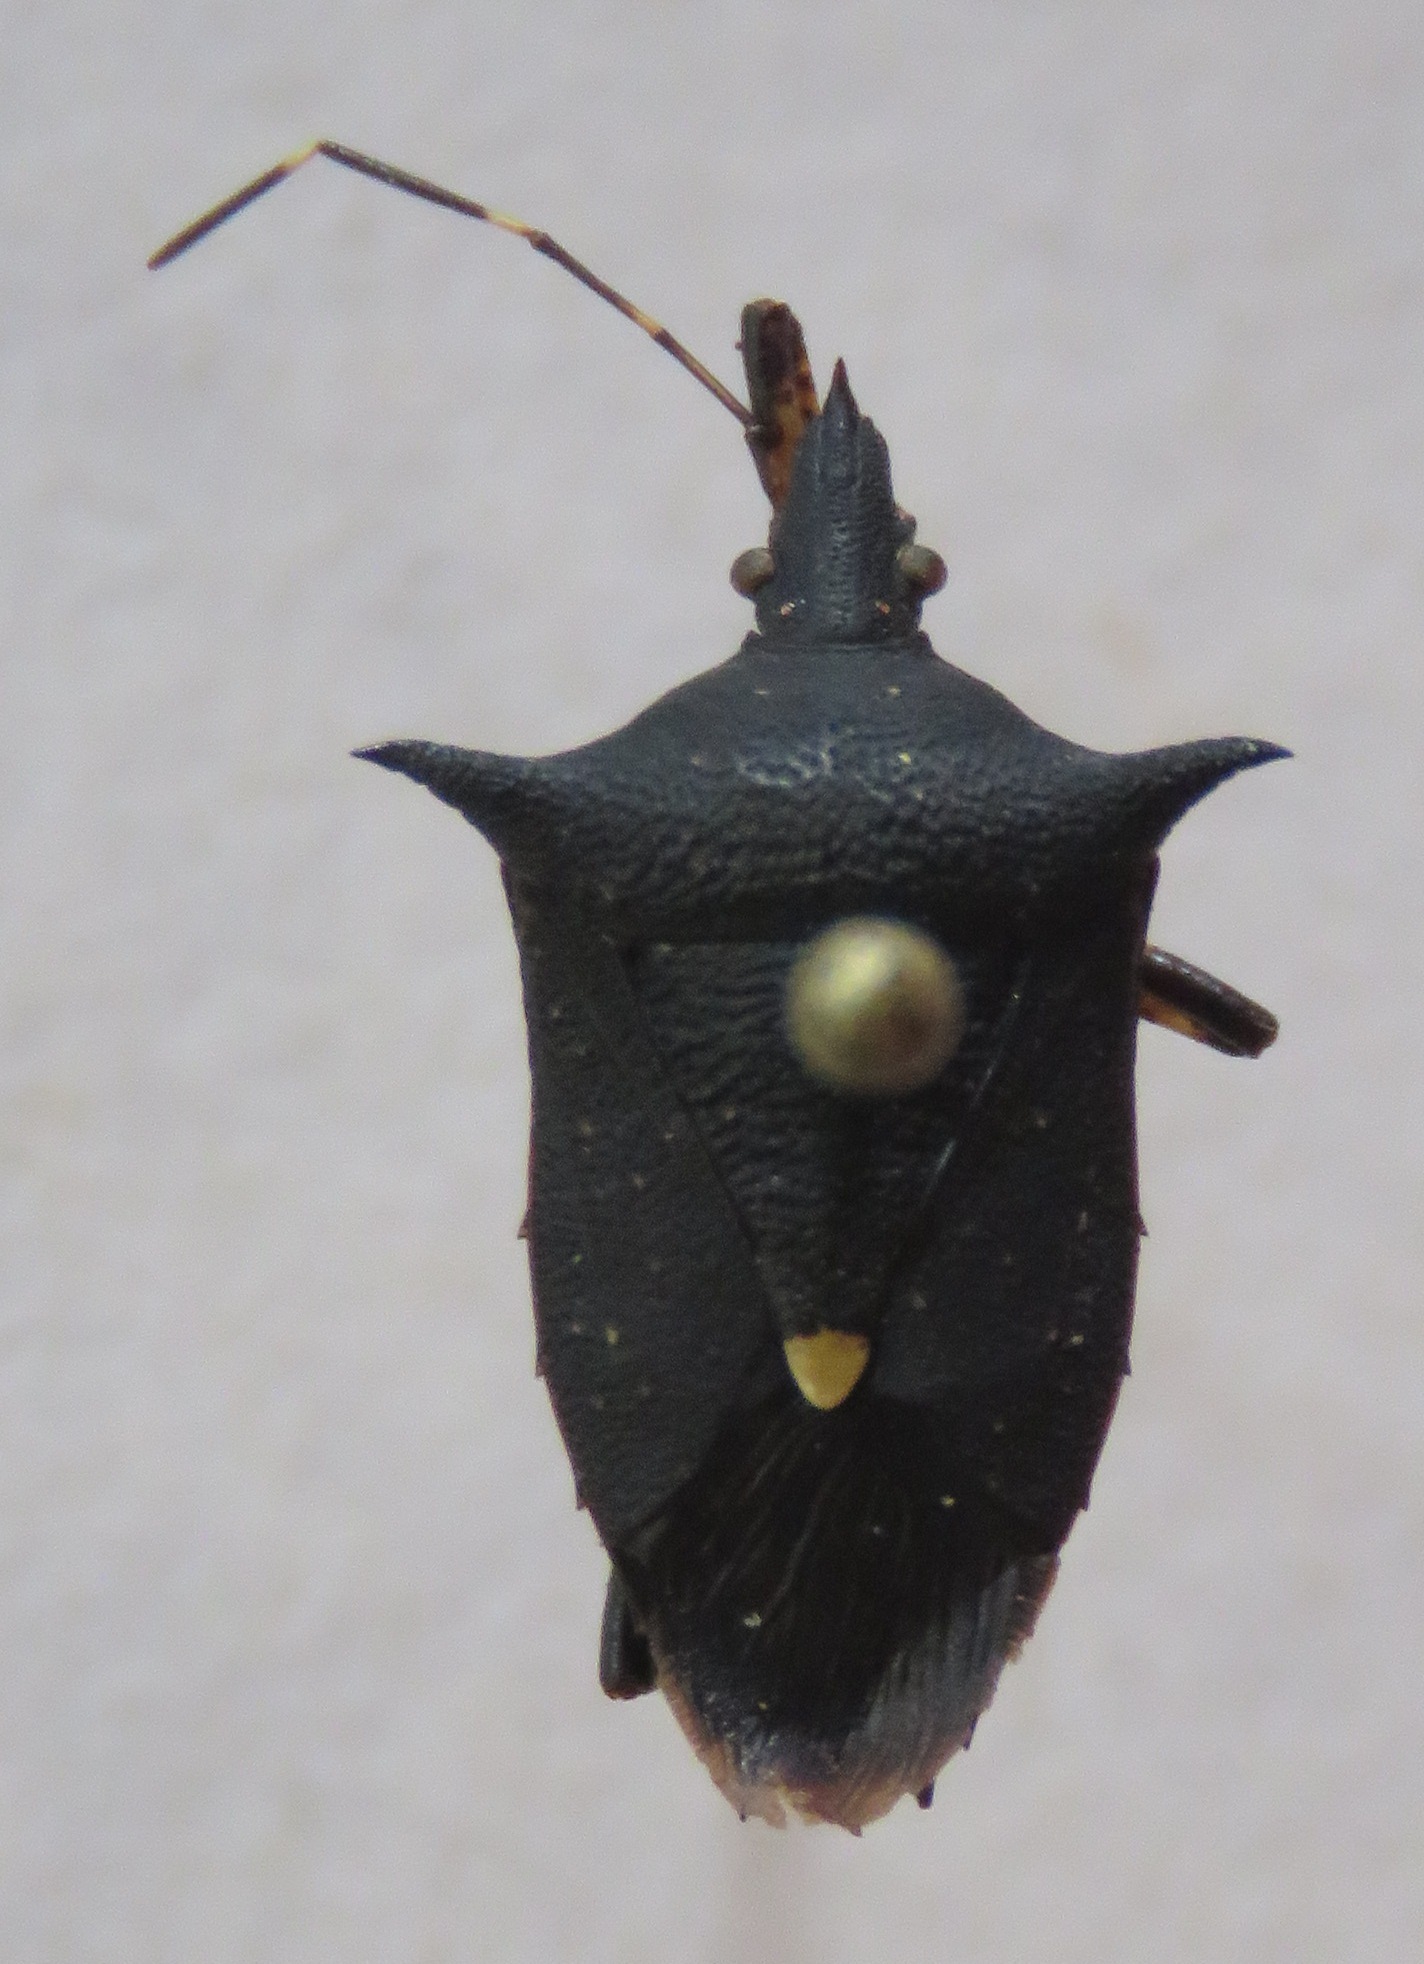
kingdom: Animalia
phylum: Arthropoda
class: Insecta
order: Hemiptera
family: Pentatomidae
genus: Proxys
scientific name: Proxys punctulatus
